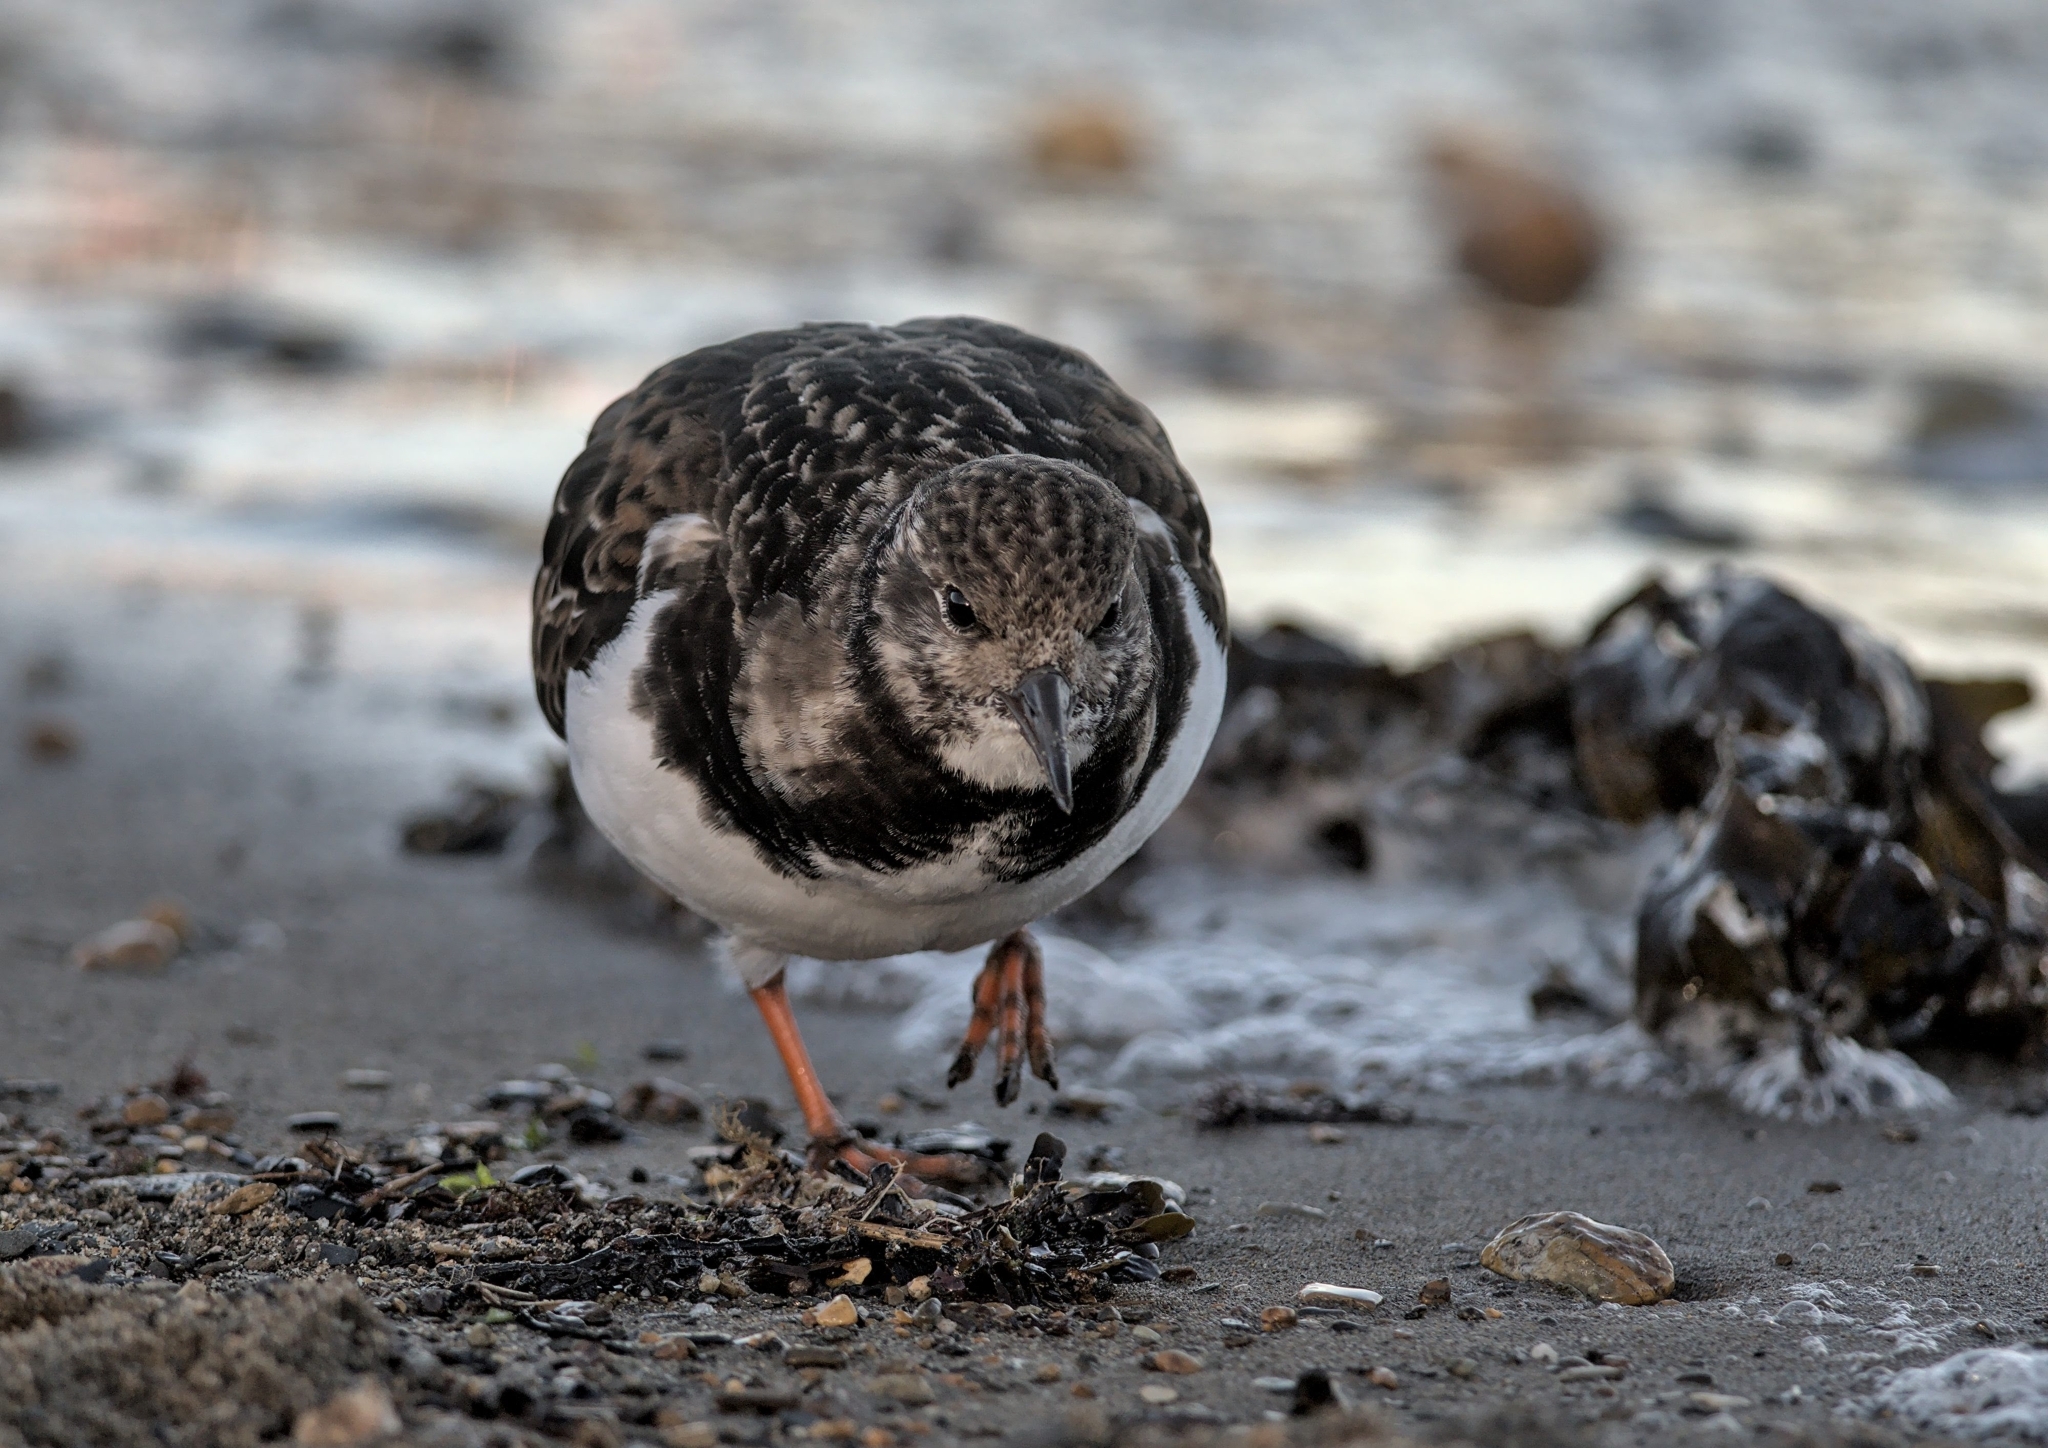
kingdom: Animalia
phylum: Chordata
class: Aves
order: Charadriiformes
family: Scolopacidae
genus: Arenaria
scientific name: Arenaria interpres
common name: Ruddy turnstone
